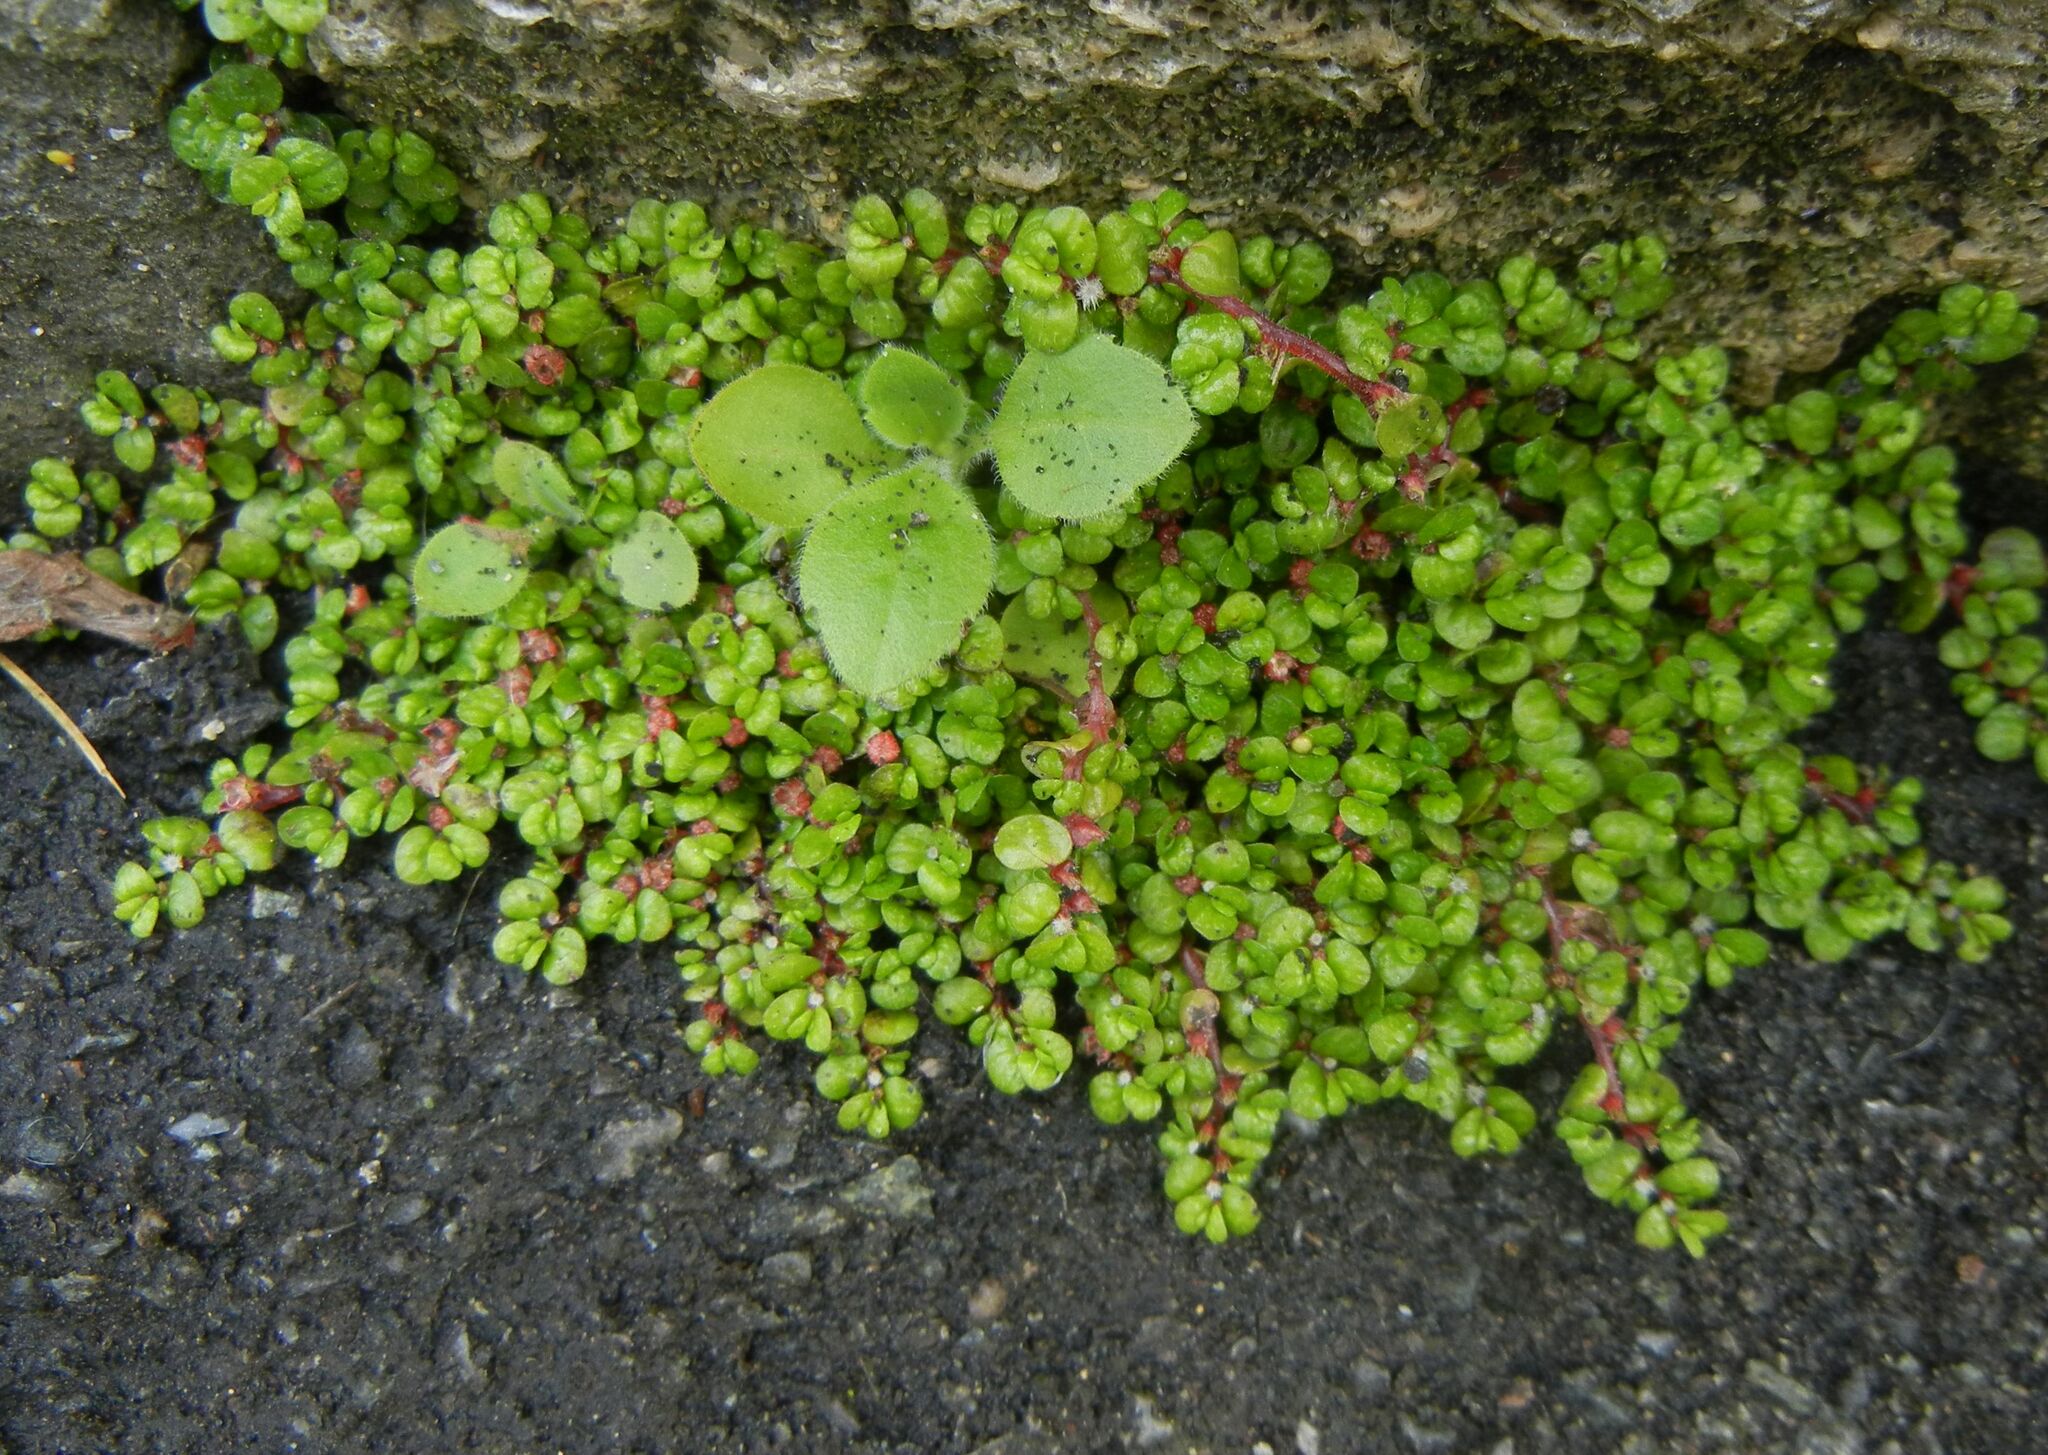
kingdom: Plantae
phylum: Tracheophyta
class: Magnoliopsida
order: Rosales
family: Urticaceae
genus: Soleirolia
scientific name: Soleirolia soleirolii
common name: Mind-your-own-business
